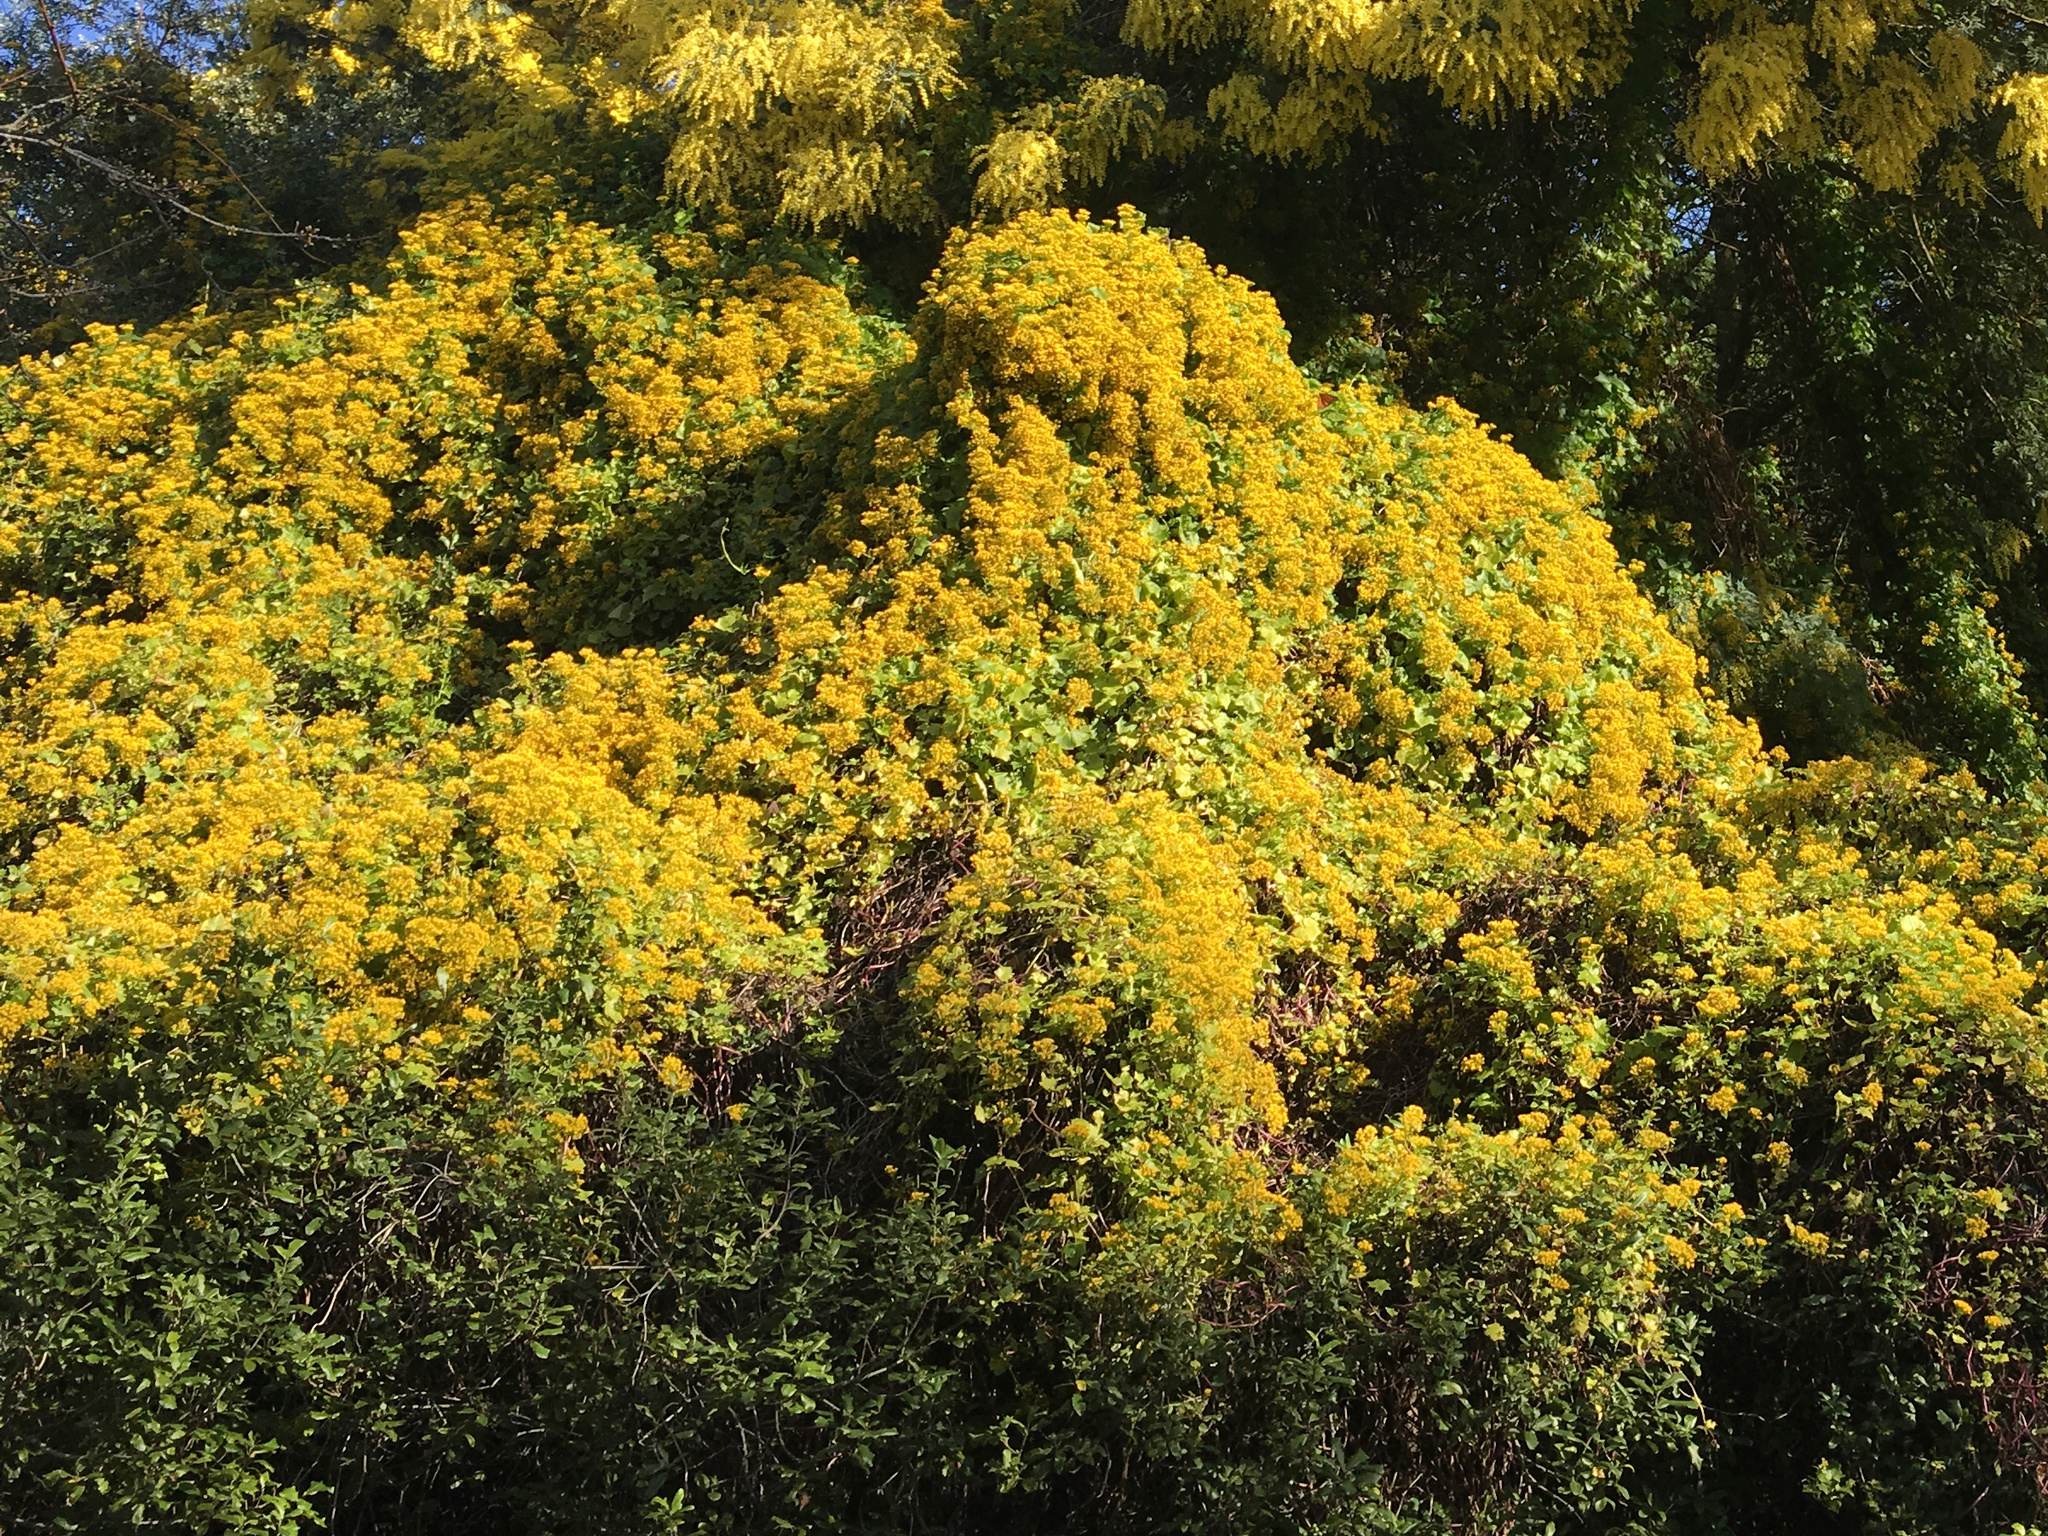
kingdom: Plantae
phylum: Tracheophyta
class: Magnoliopsida
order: Asterales
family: Asteraceae
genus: Delairea
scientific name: Delairea odorata
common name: Cape-ivy
